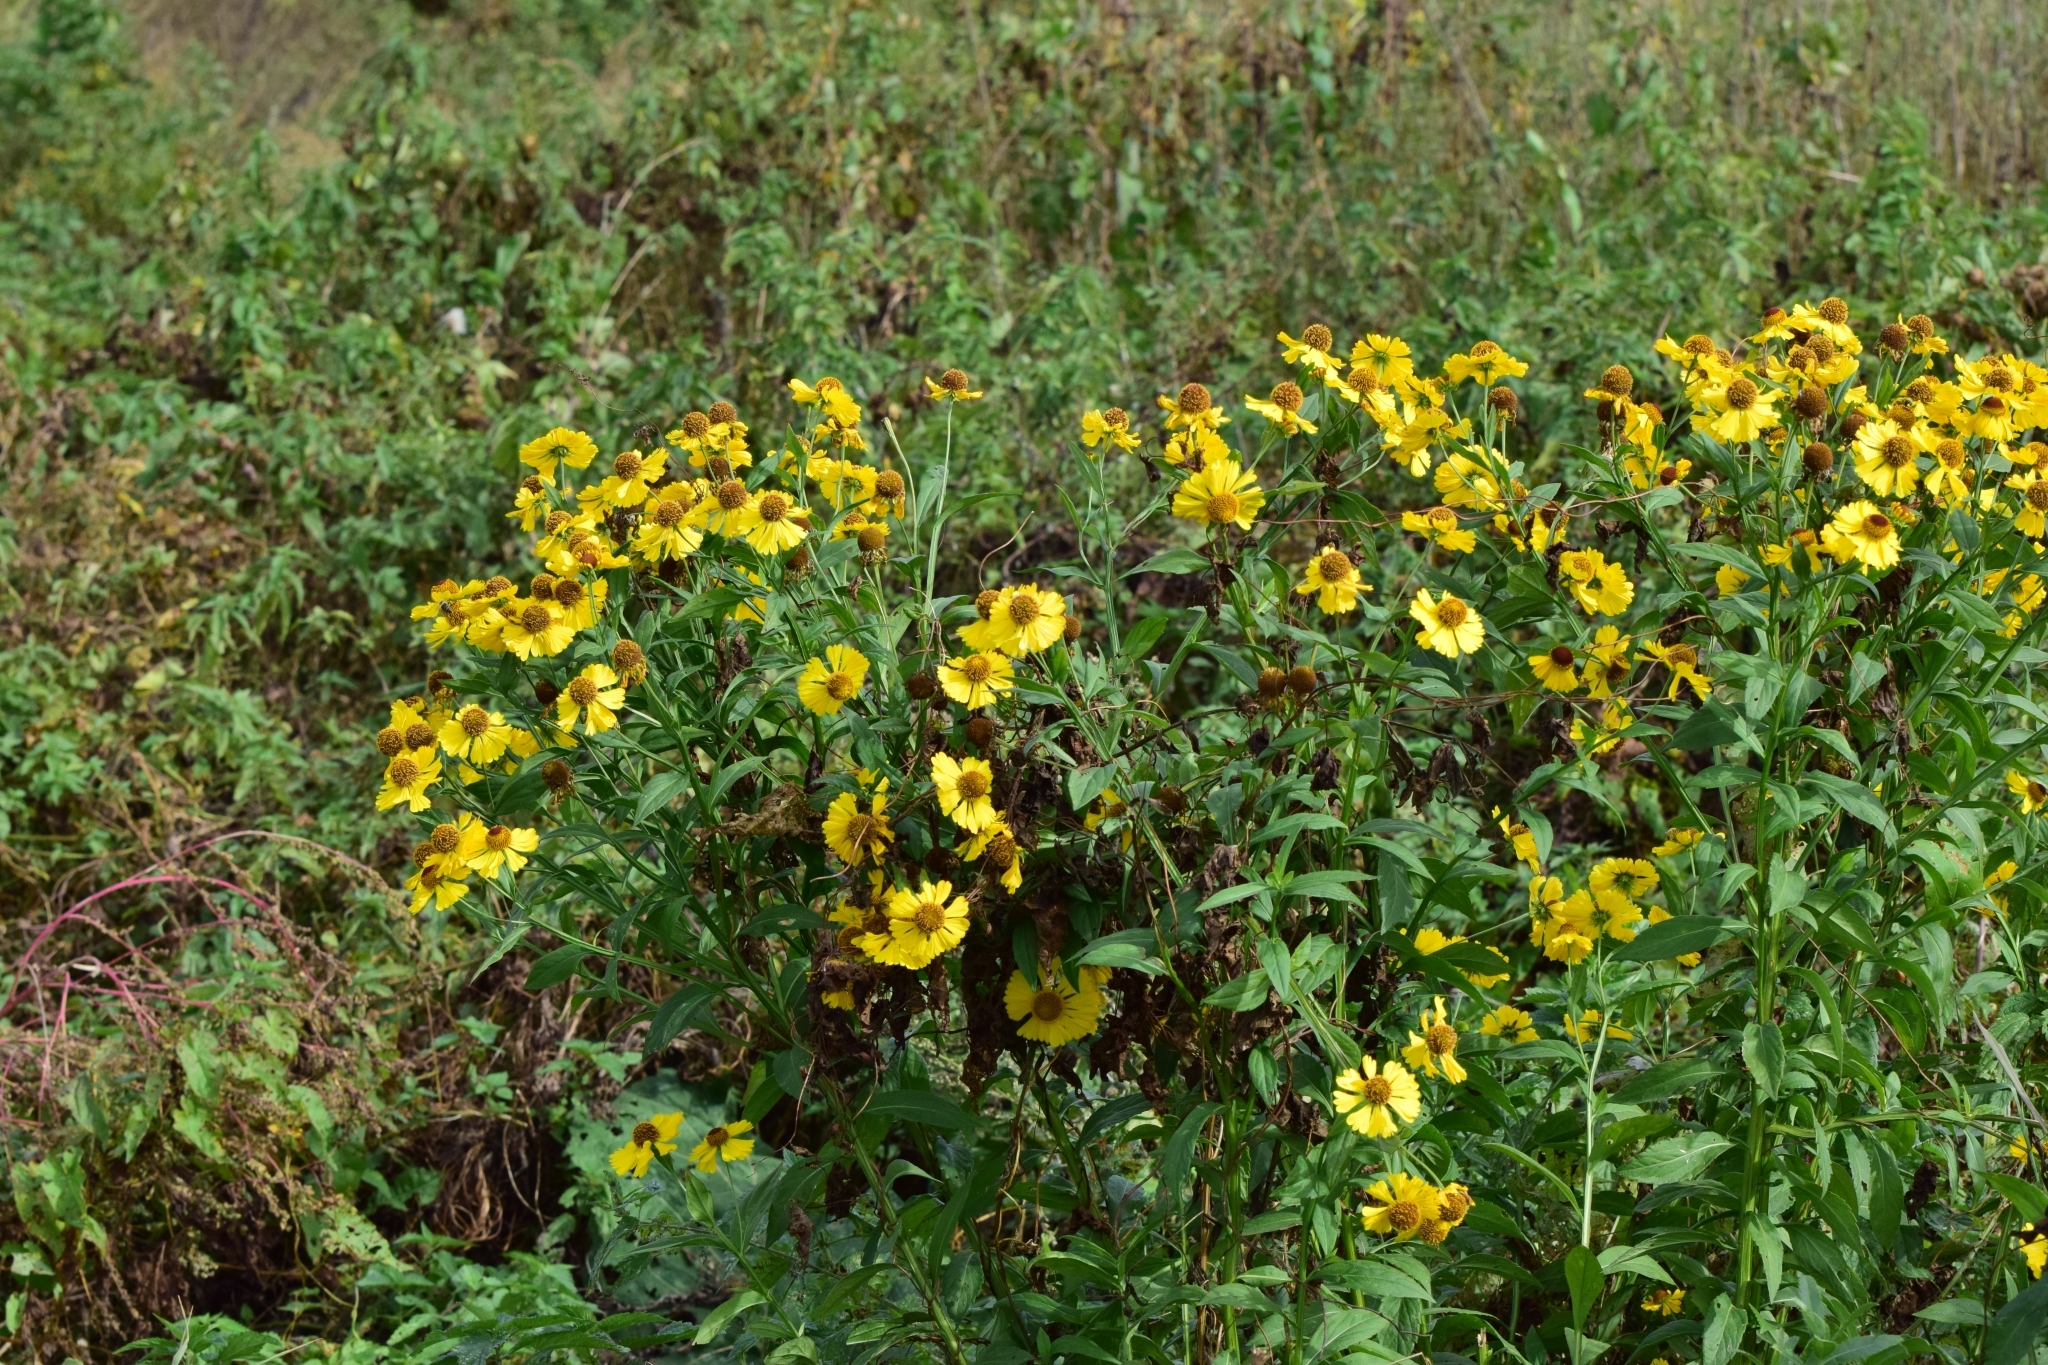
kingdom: Plantae
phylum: Tracheophyta
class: Magnoliopsida
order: Asterales
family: Asteraceae
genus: Helenium
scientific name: Helenium autumnale
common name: Sneezeweed
